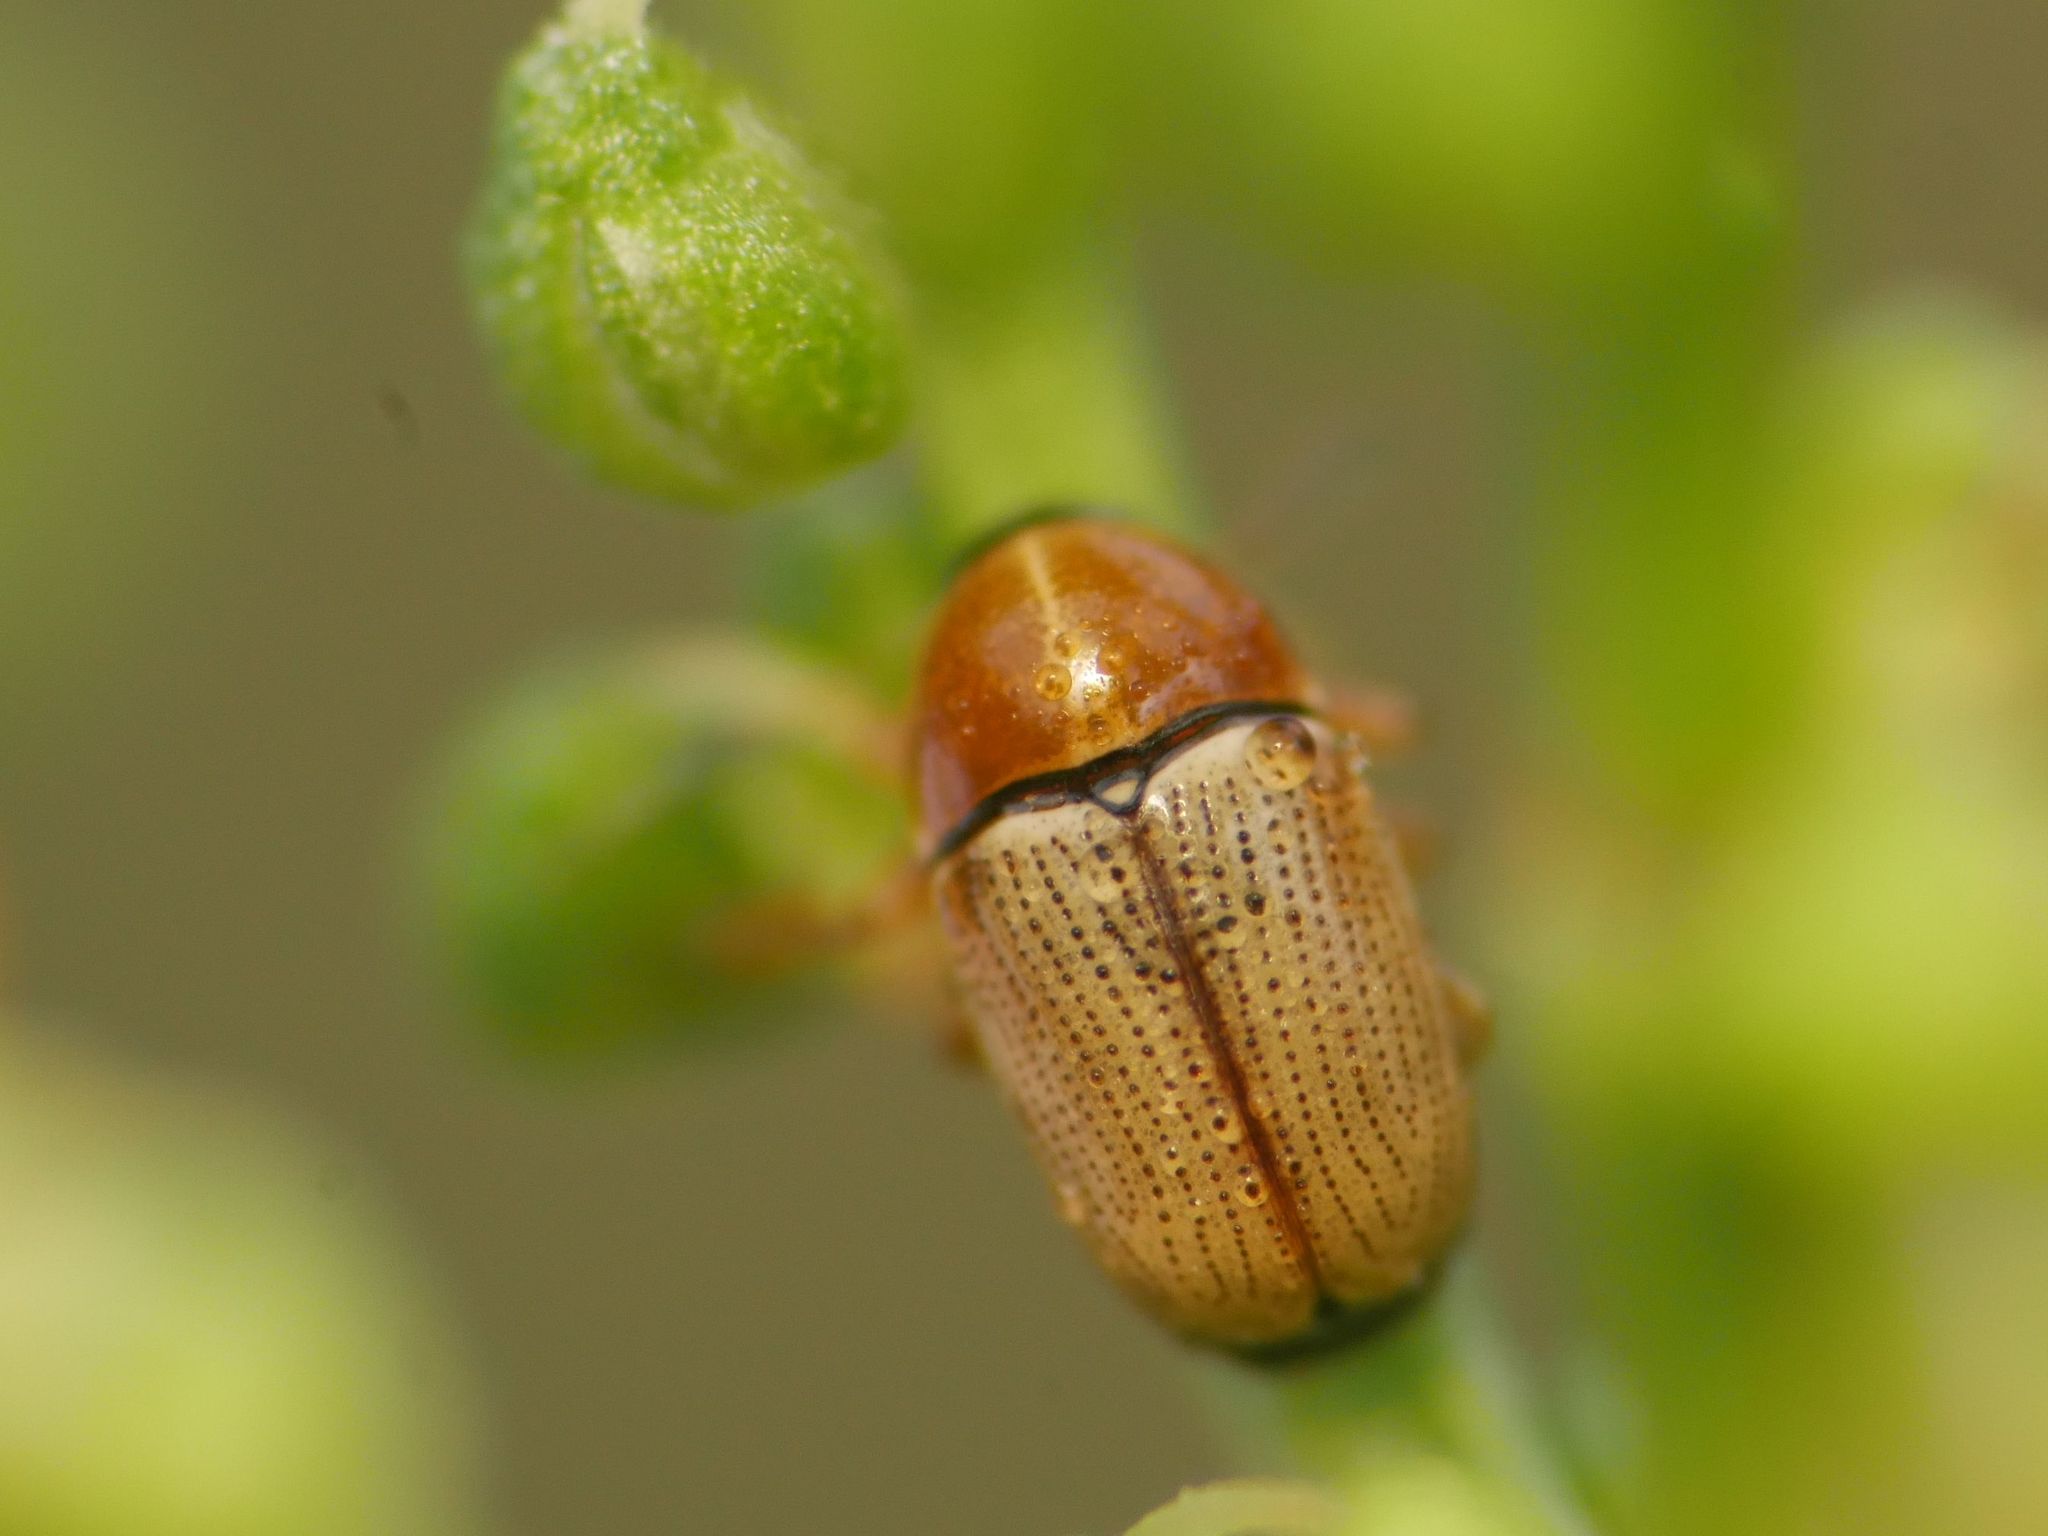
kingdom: Animalia
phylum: Arthropoda
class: Insecta
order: Coleoptera
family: Chrysomelidae
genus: Cryptocephalus
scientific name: Cryptocephalus fulvus
